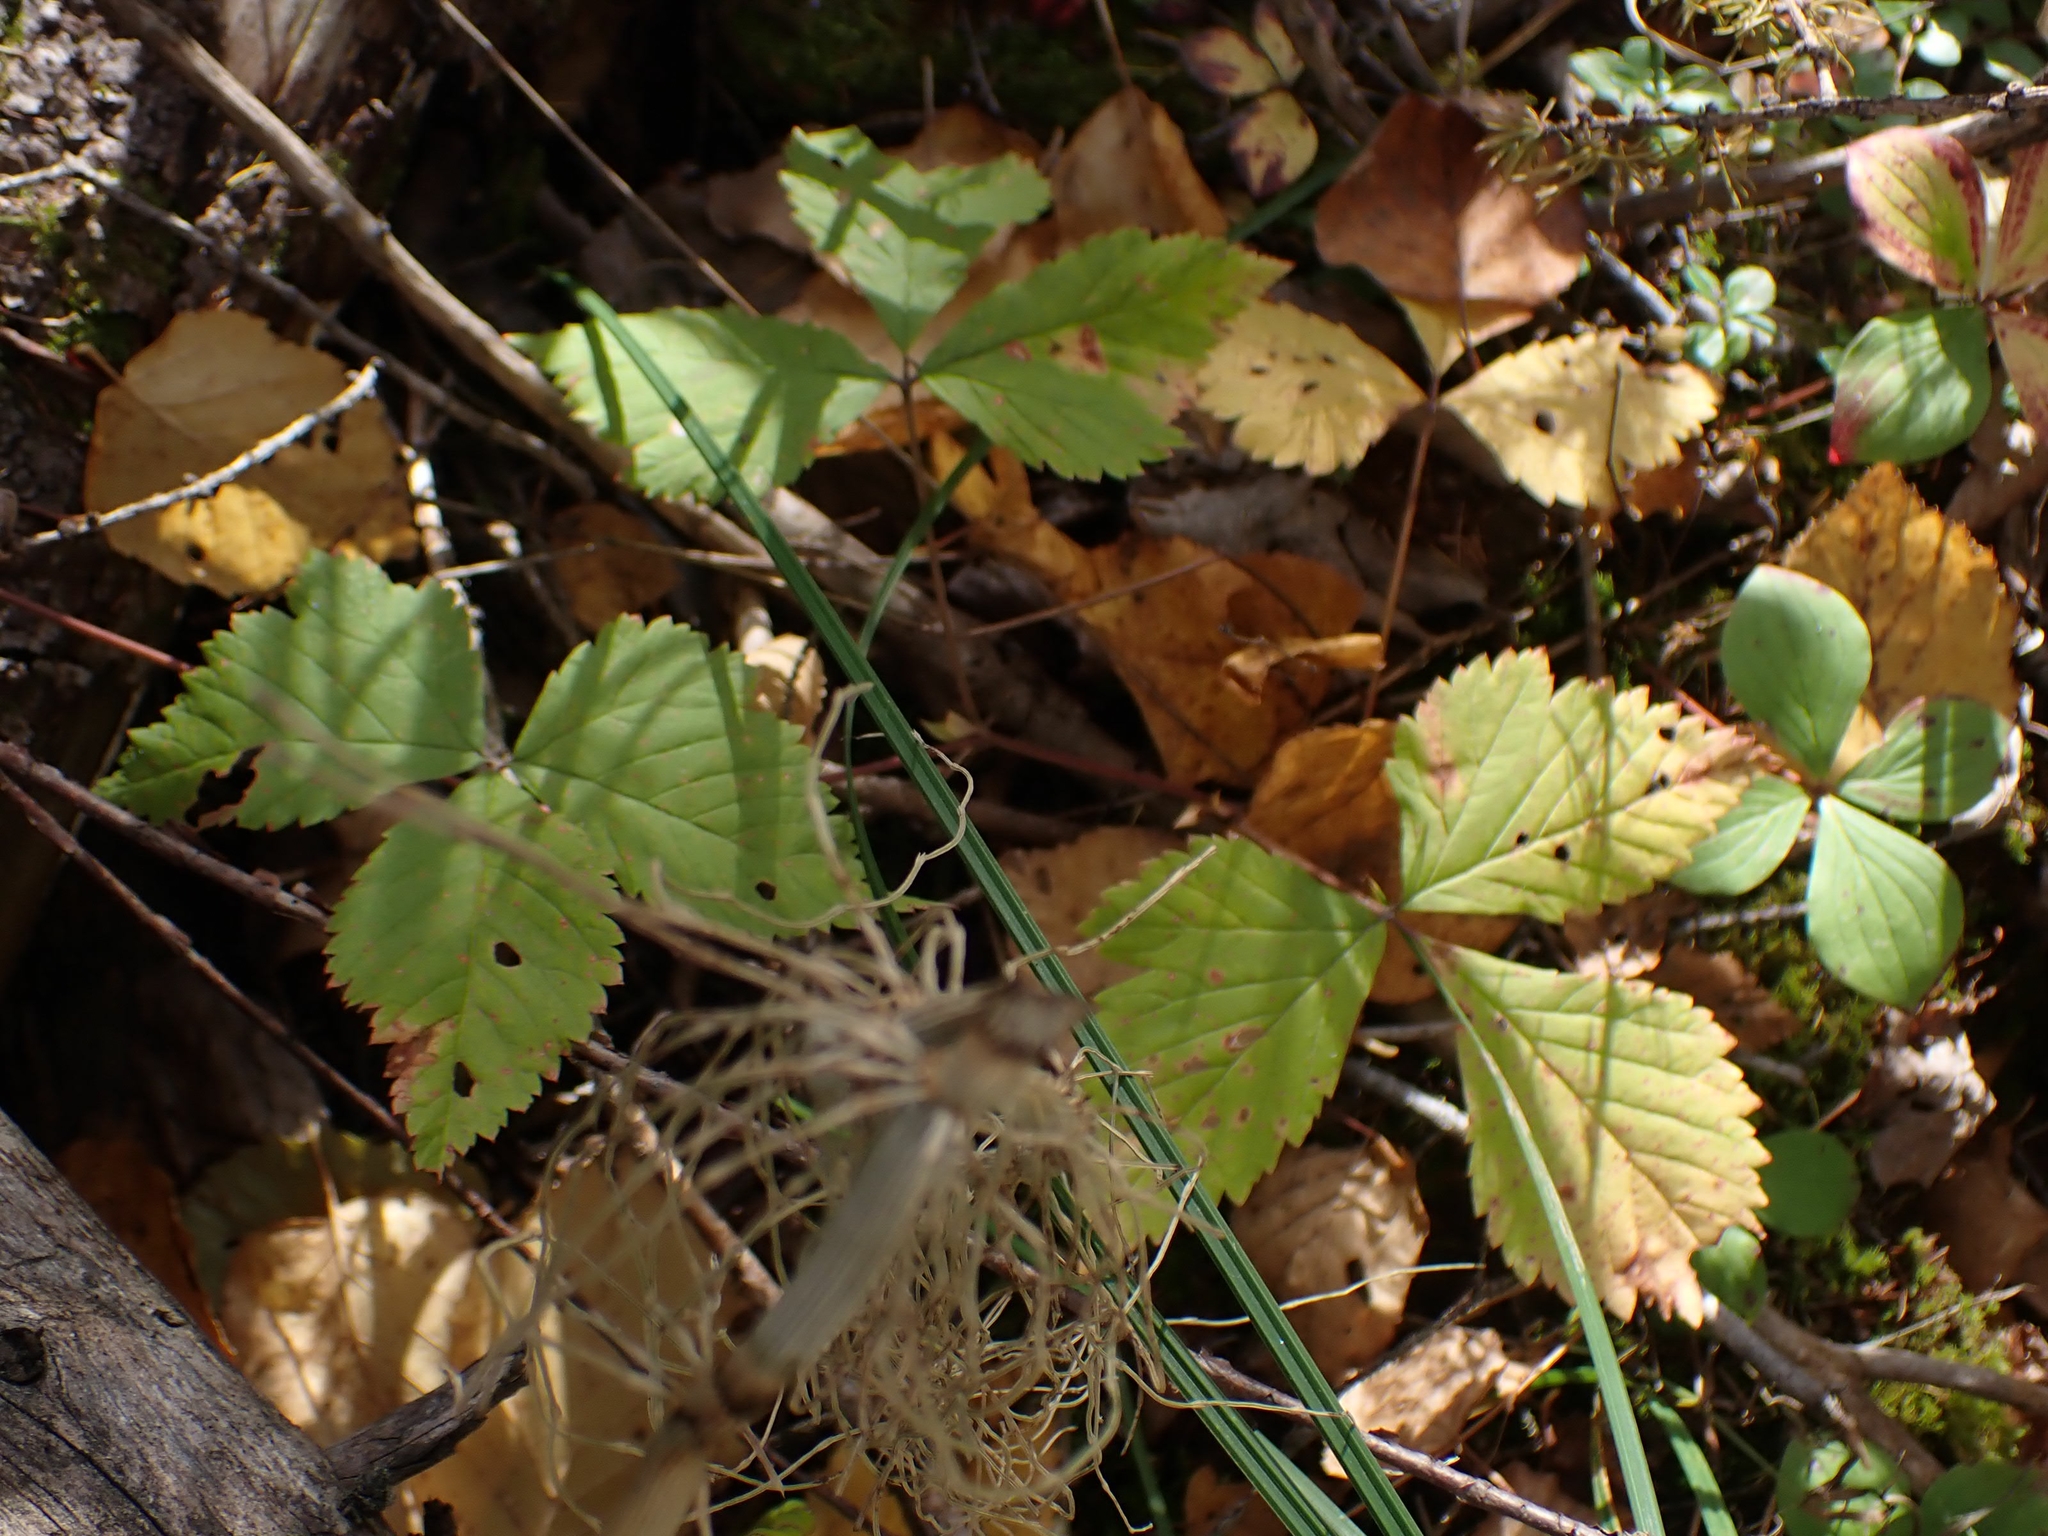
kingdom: Plantae
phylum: Tracheophyta
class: Magnoliopsida
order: Rosales
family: Rosaceae
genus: Rubus
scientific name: Rubus pubescens
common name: Dwarf raspberry
